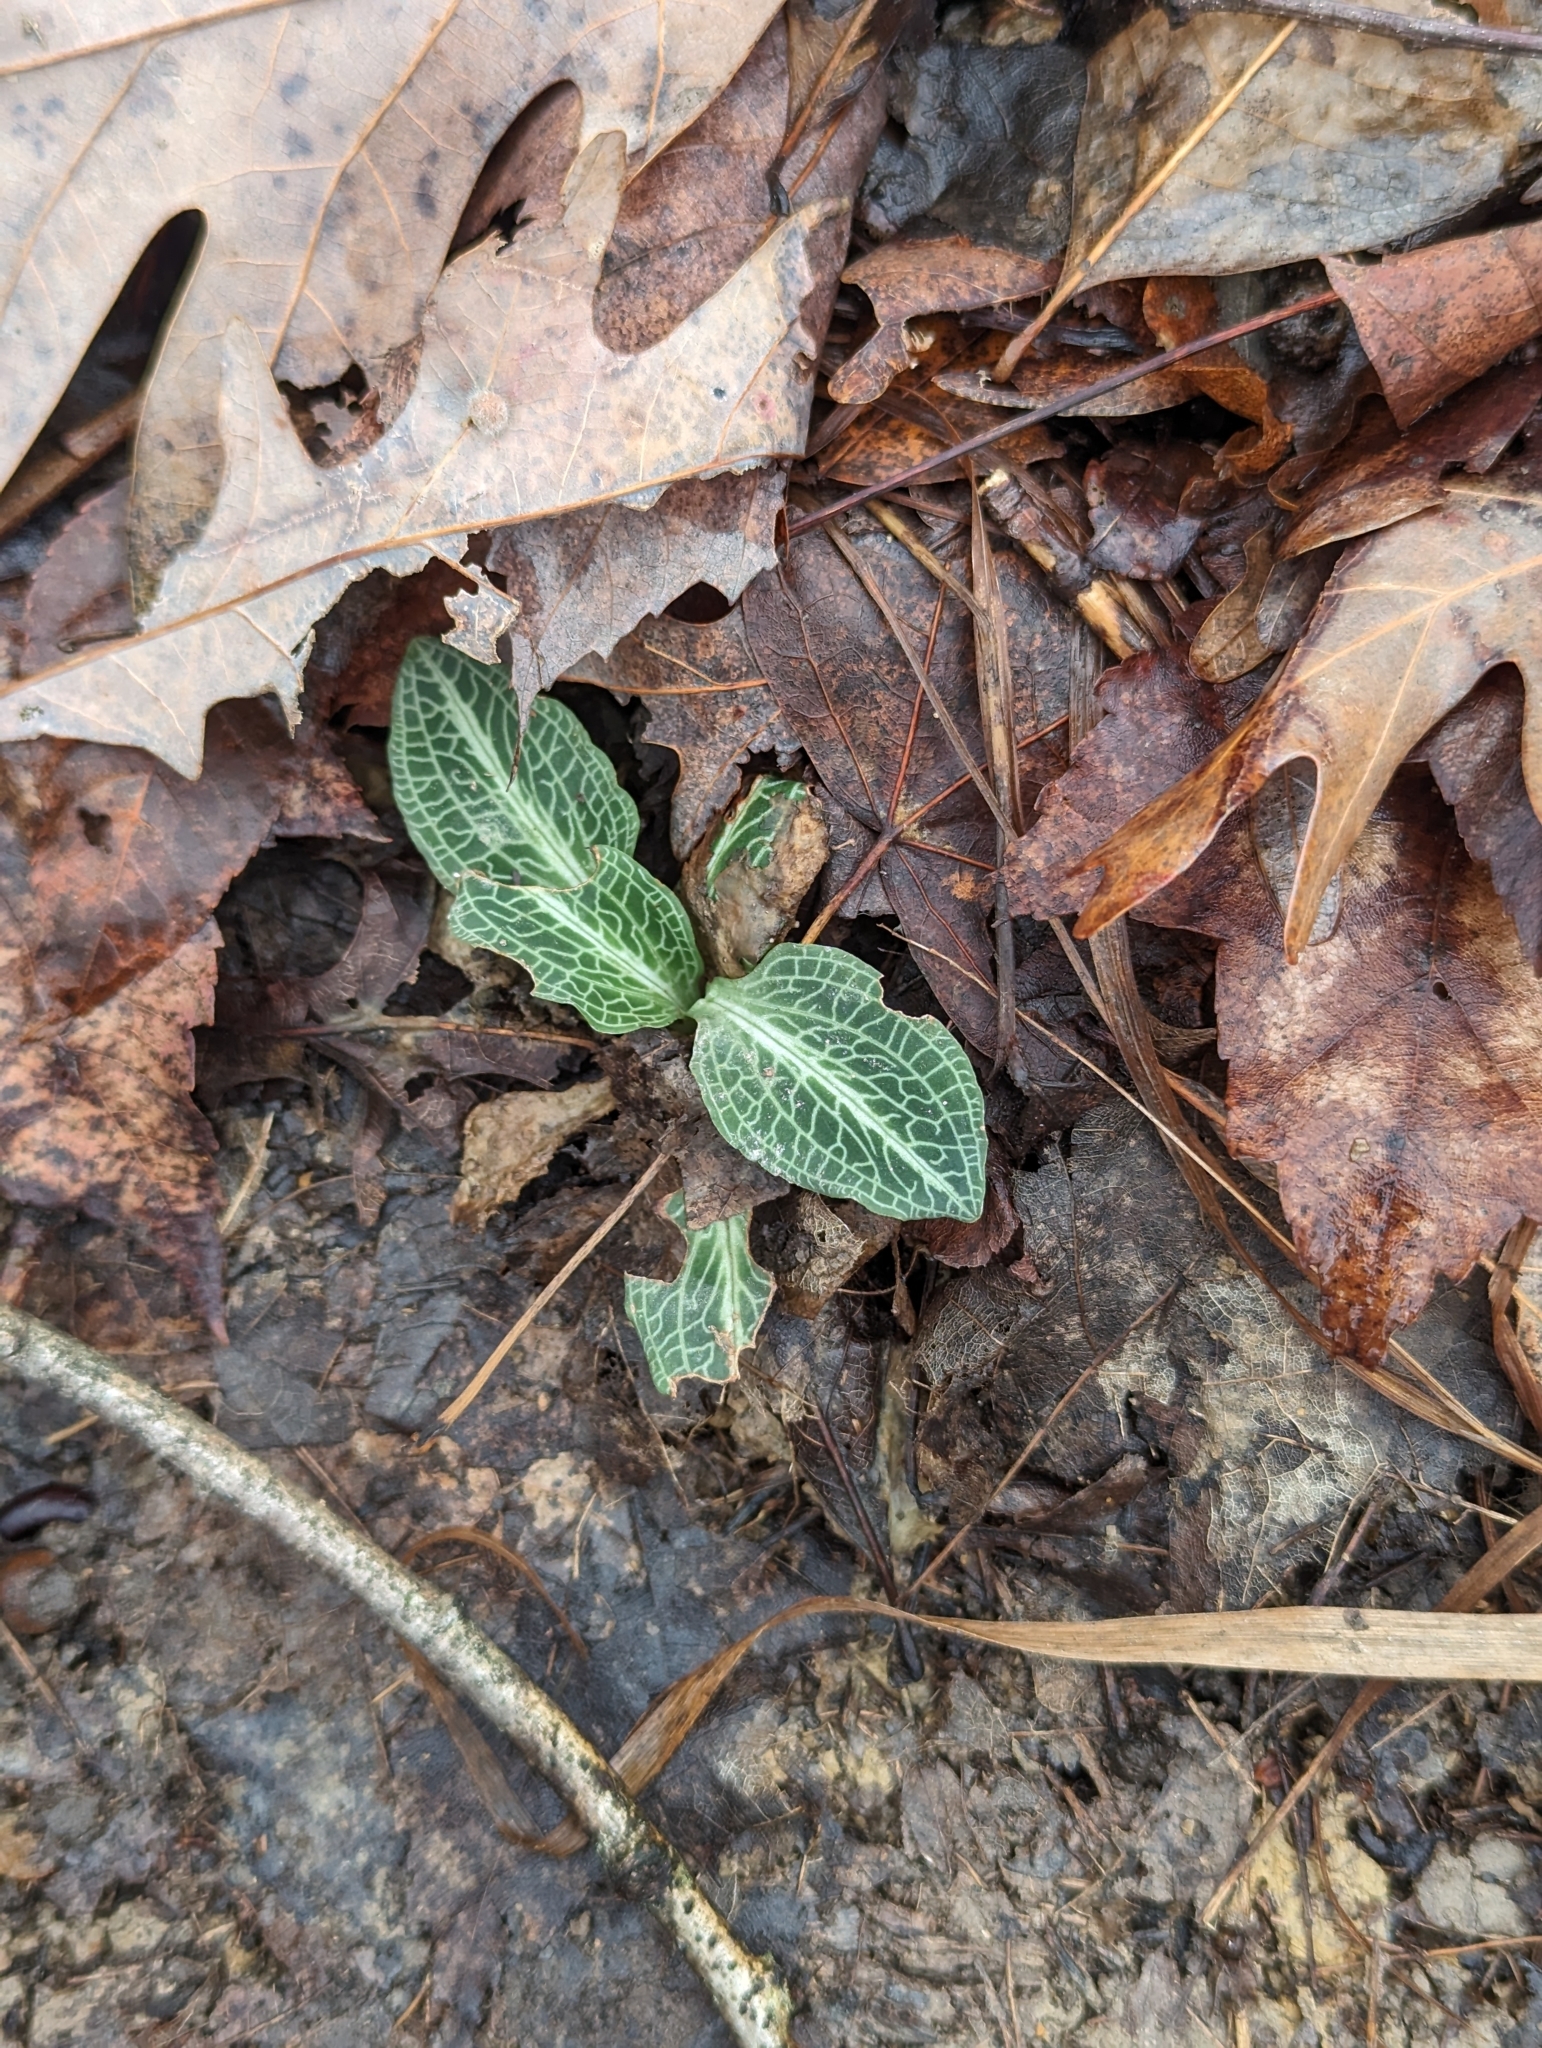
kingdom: Plantae
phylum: Tracheophyta
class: Liliopsida
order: Asparagales
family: Orchidaceae
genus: Goodyera
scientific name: Goodyera pubescens
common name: Downy rattlesnake-plantain
